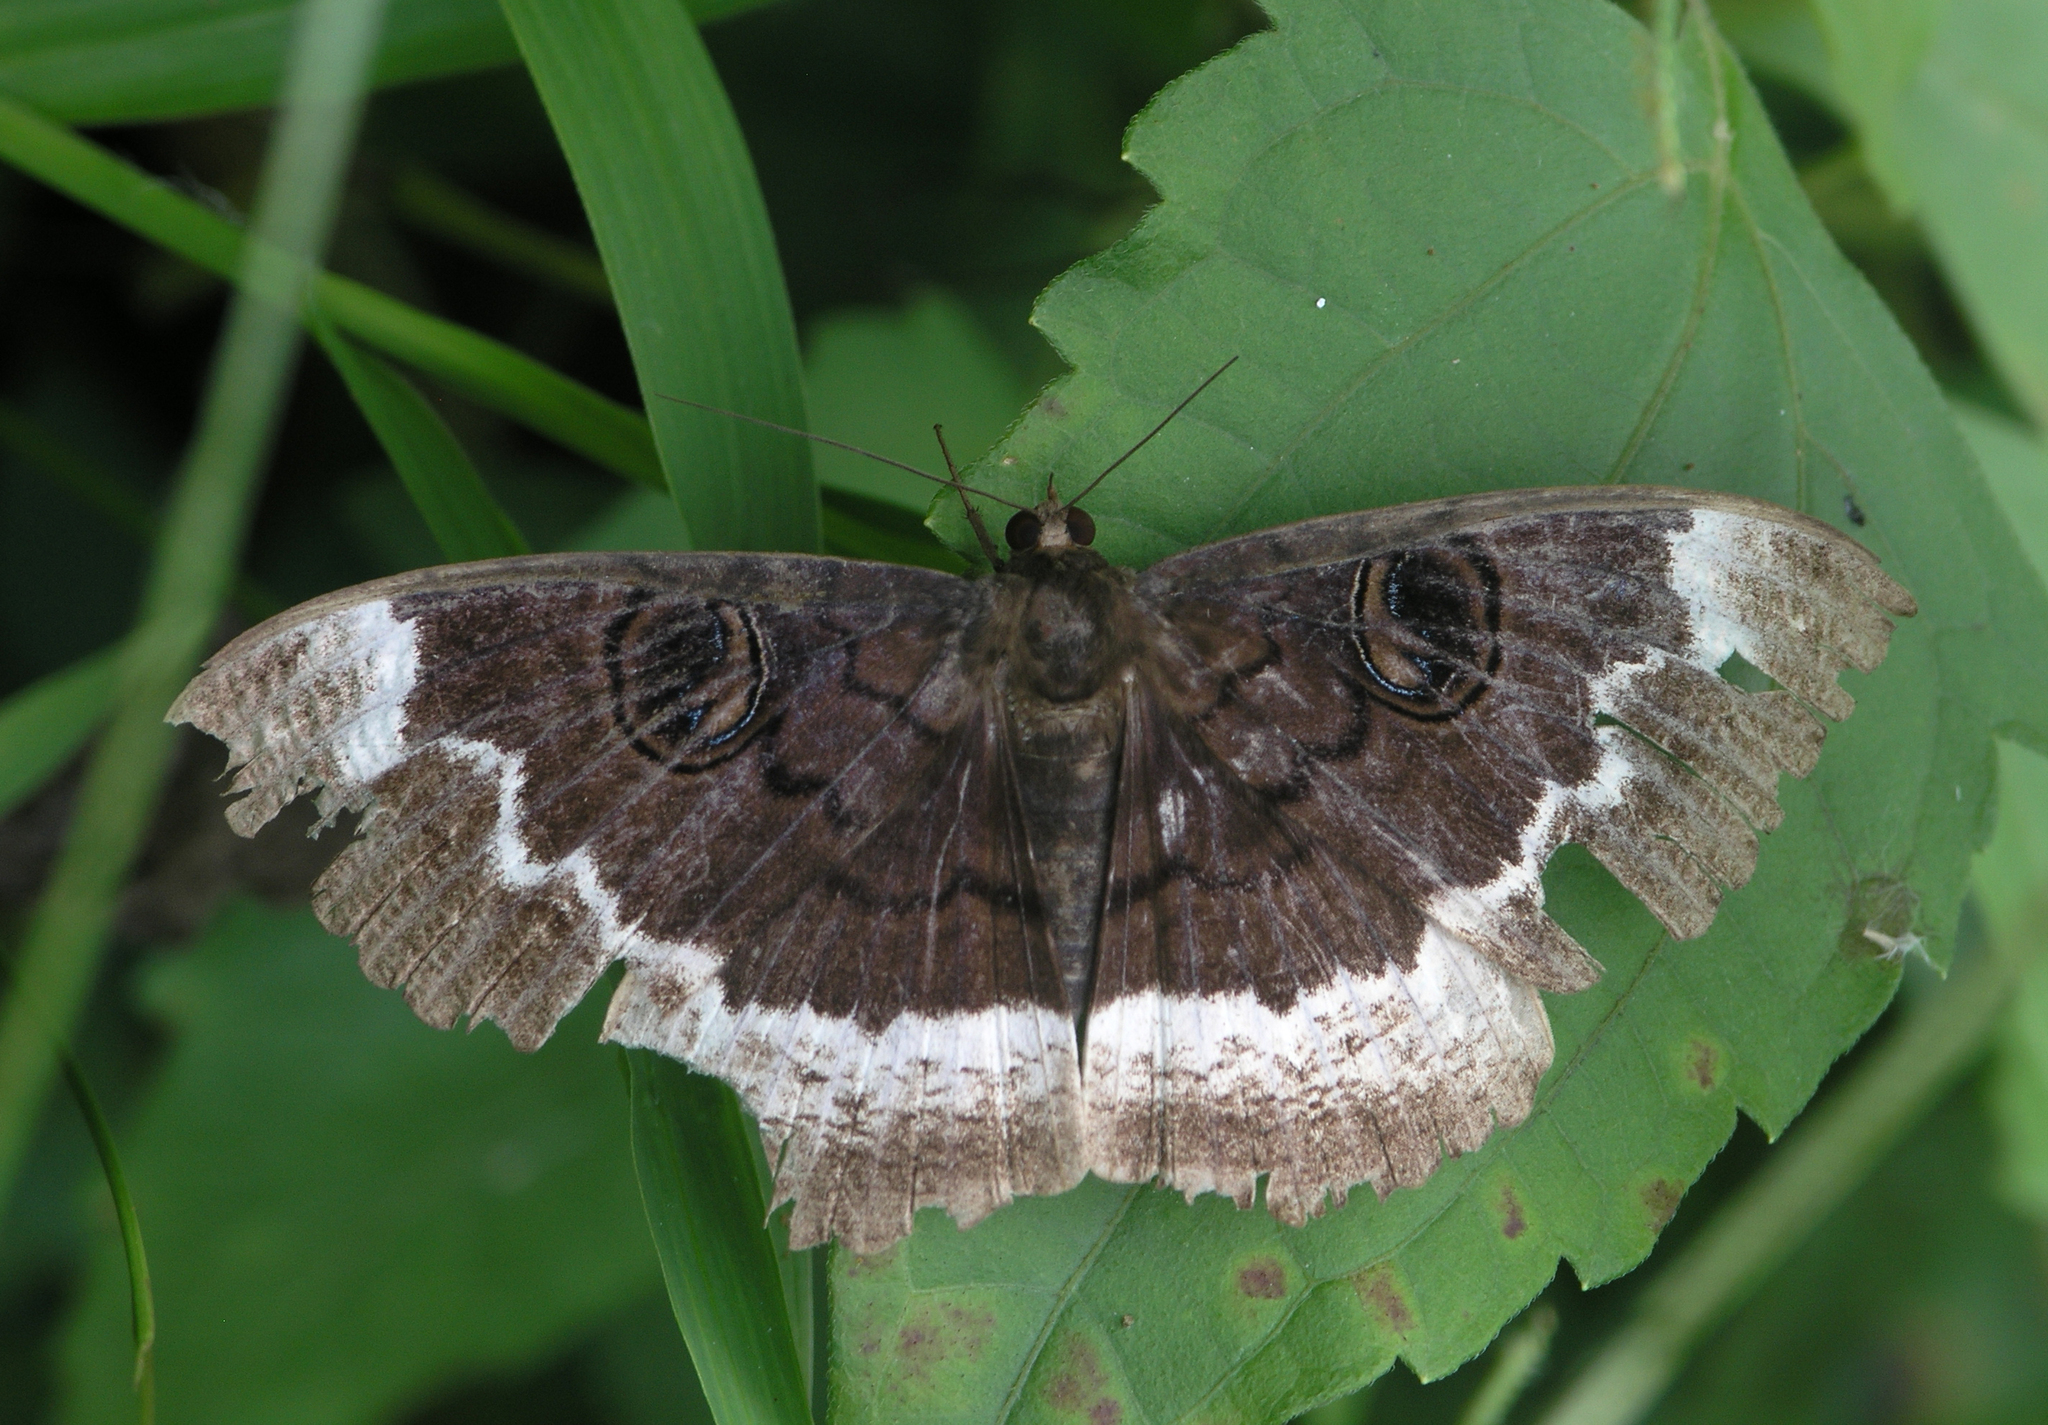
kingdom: Animalia
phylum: Arthropoda
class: Insecta
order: Lepidoptera
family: Erebidae
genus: Erebus
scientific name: Erebus caprimulgus
